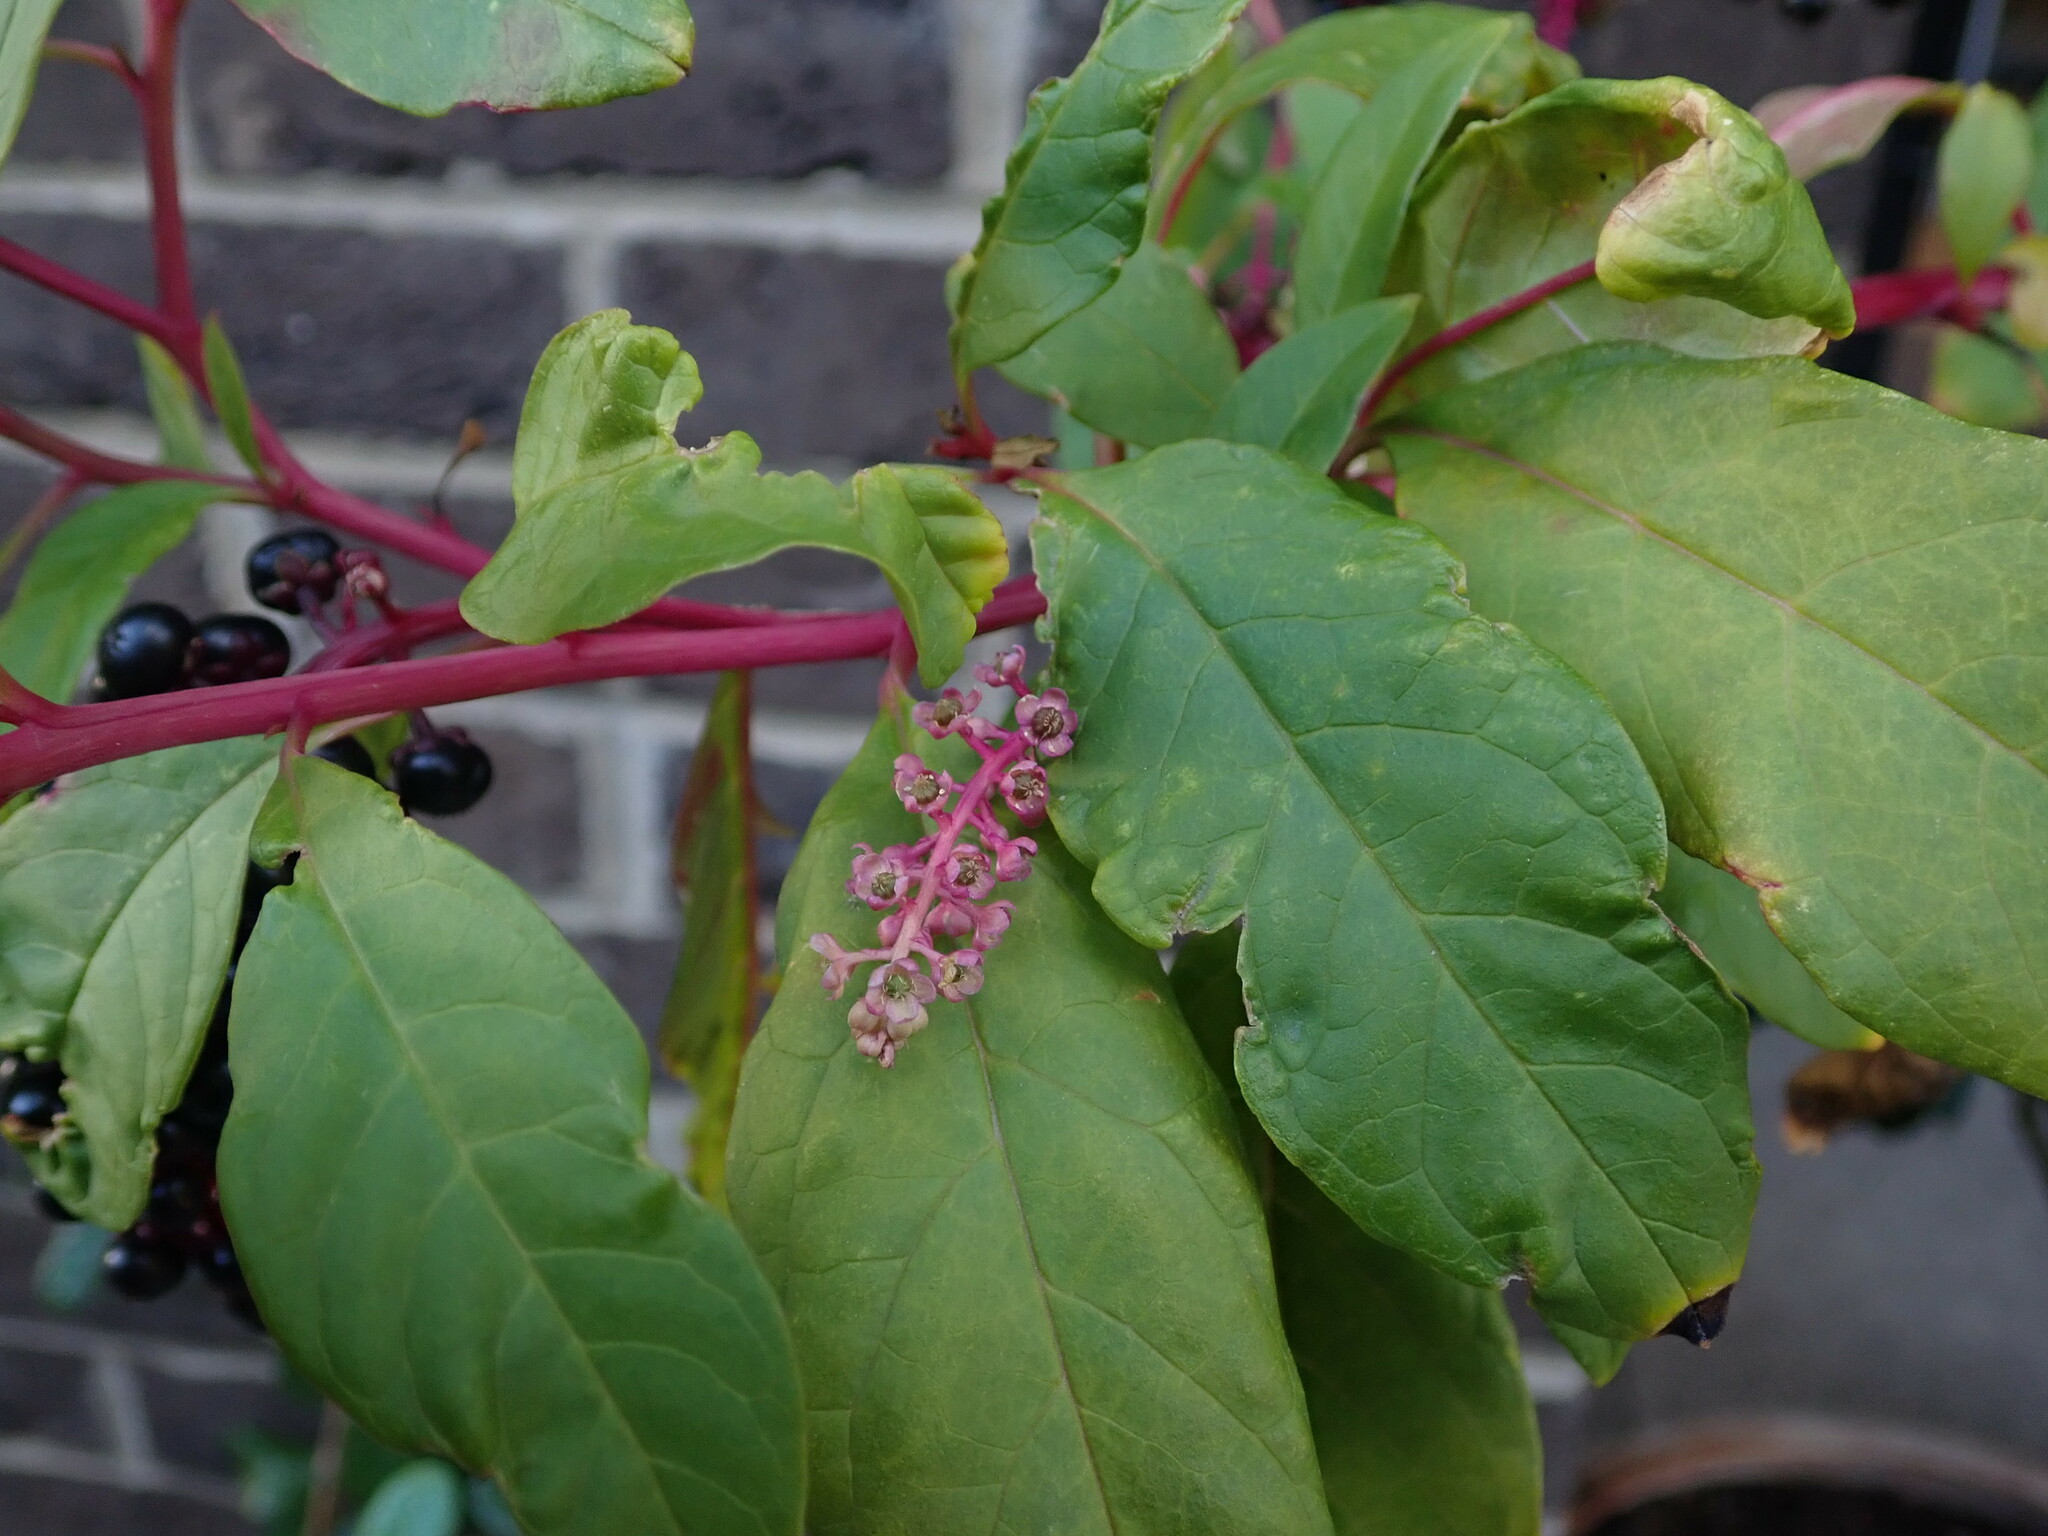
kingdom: Plantae
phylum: Tracheophyta
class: Magnoliopsida
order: Caryophyllales
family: Phytolaccaceae
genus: Phytolacca
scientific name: Phytolacca americana
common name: American pokeweed
